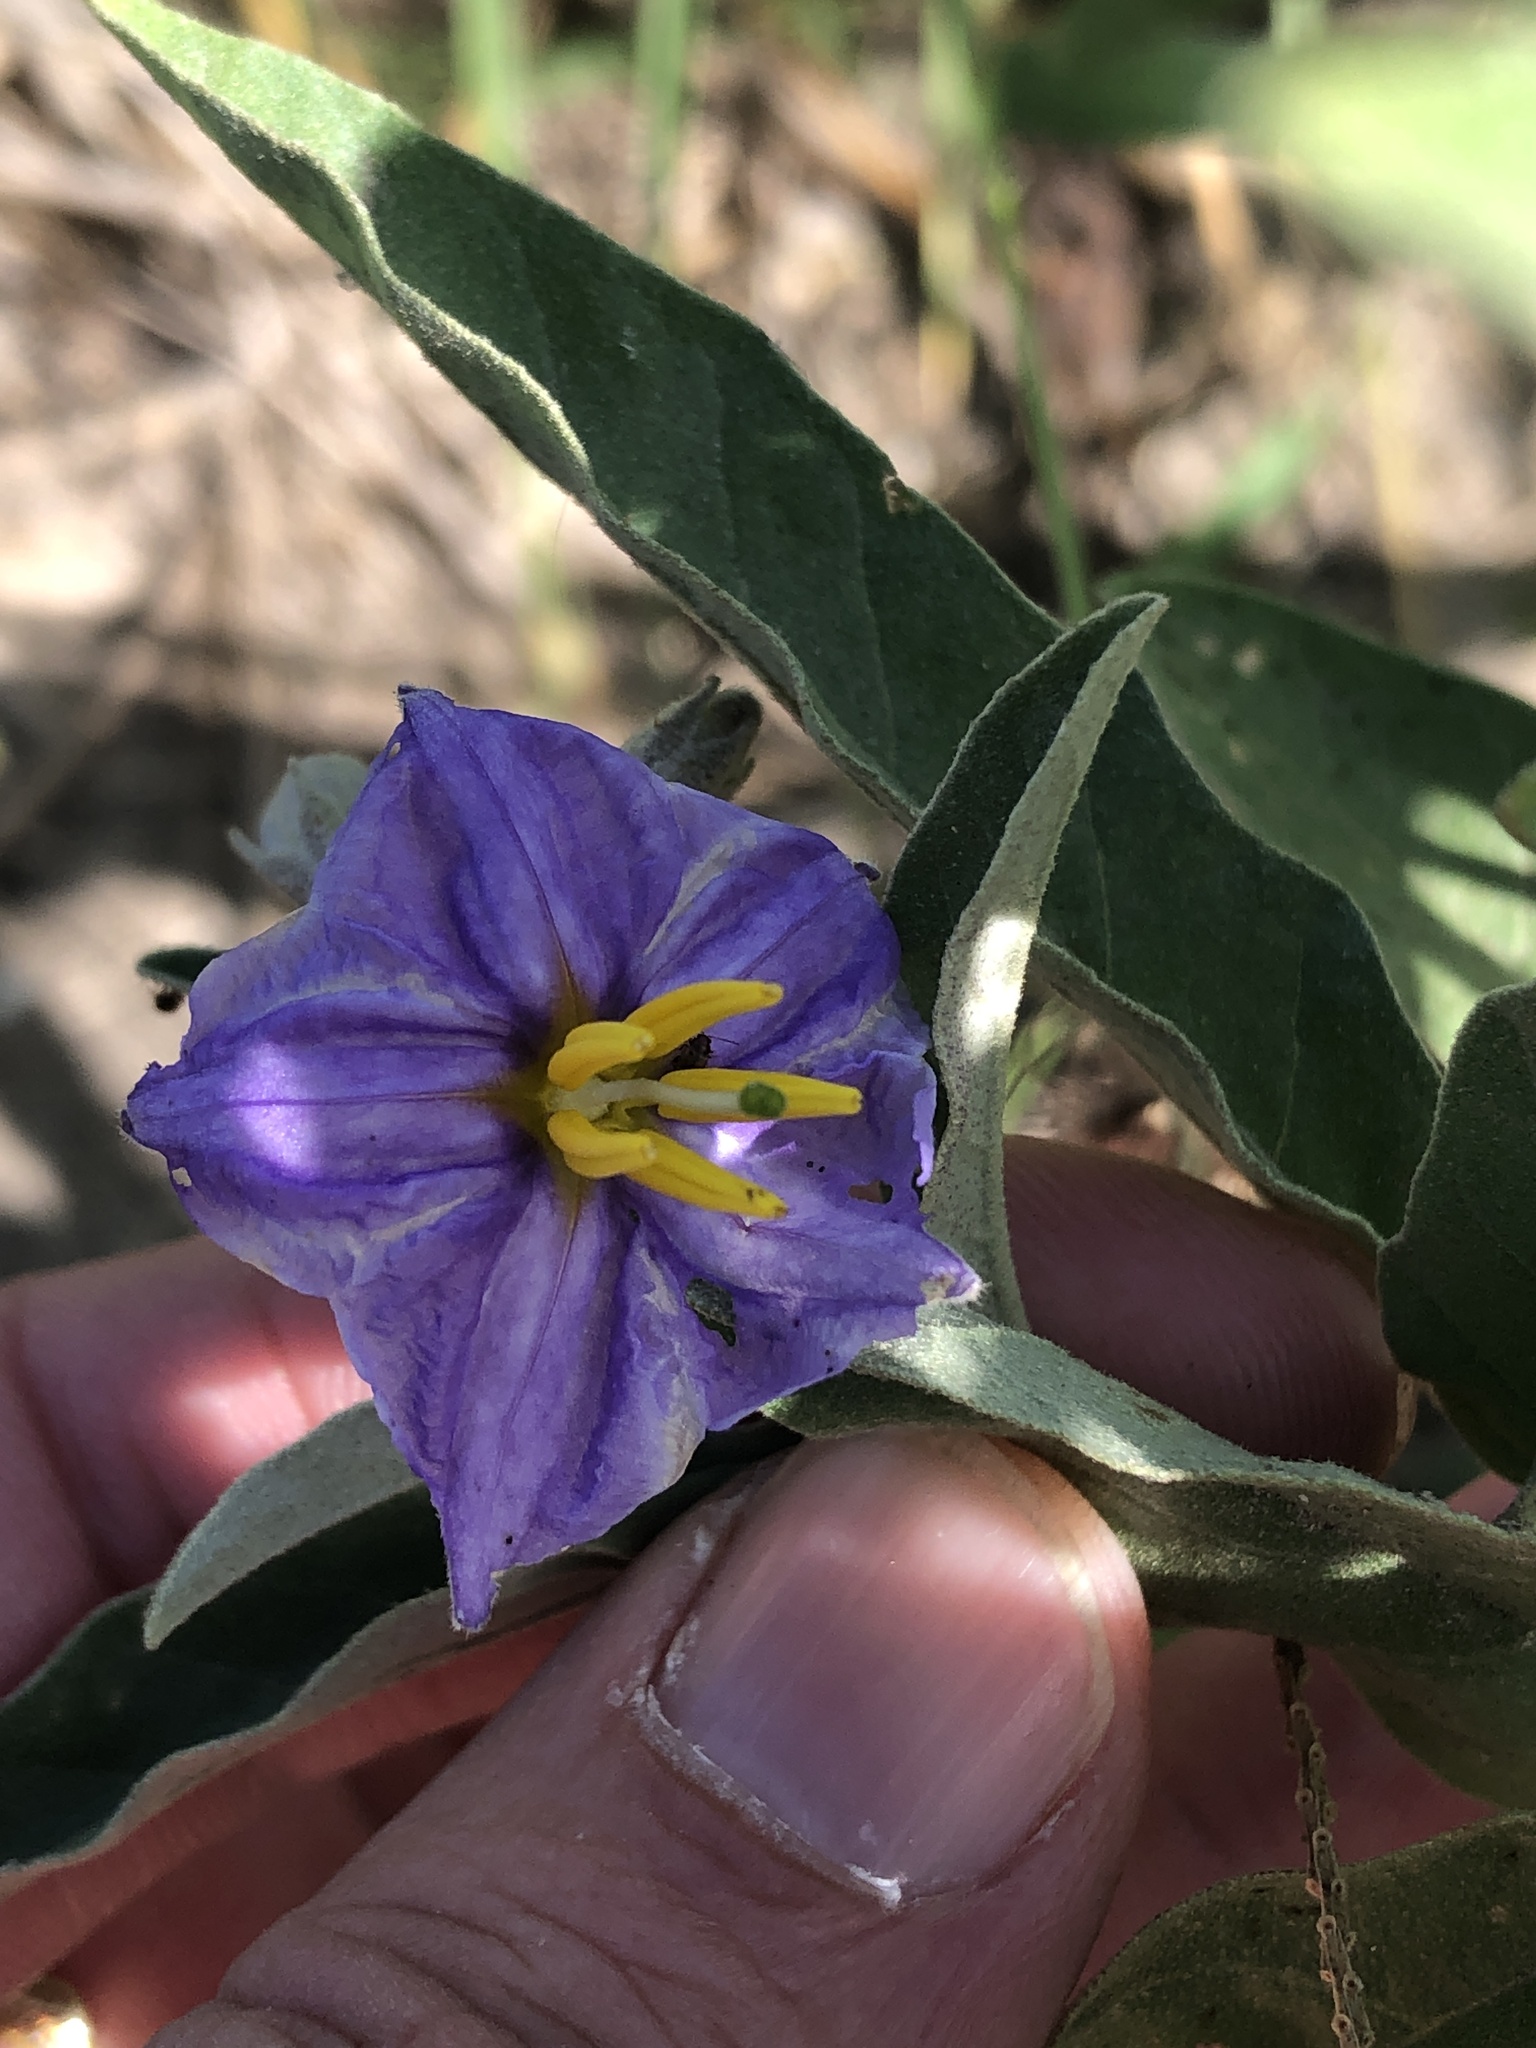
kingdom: Plantae
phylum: Tracheophyta
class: Magnoliopsida
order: Solanales
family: Solanaceae
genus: Solanum
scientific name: Solanum elaeagnifolium
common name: Silverleaf nightshade
